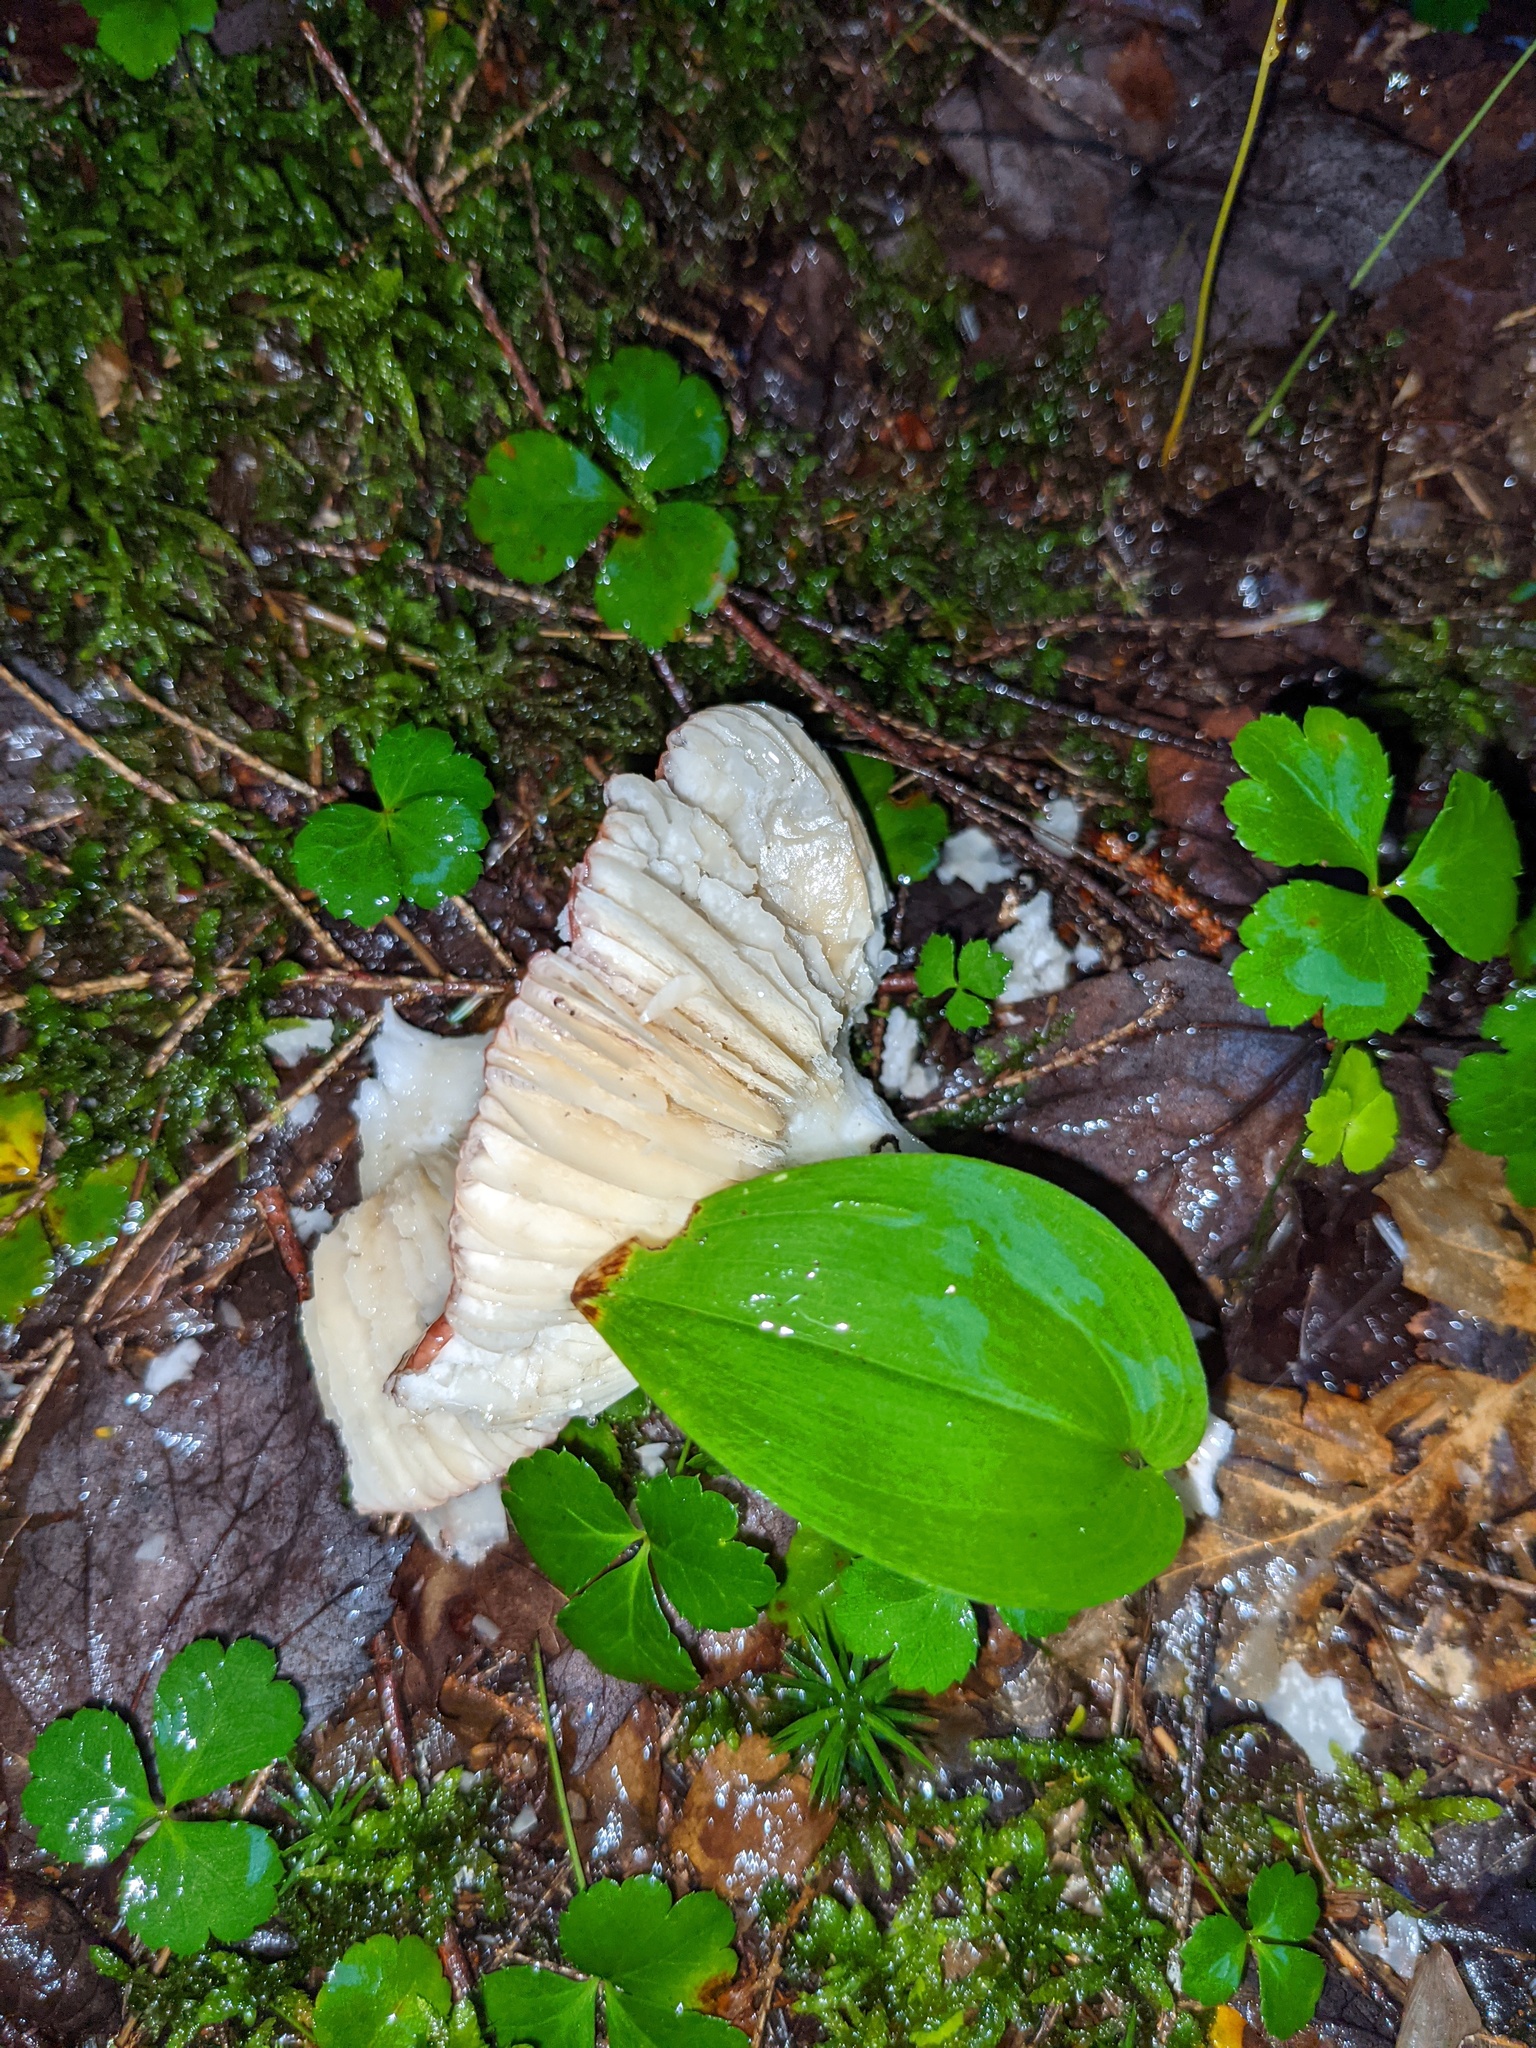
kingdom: Plantae
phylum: Tracheophyta
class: Liliopsida
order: Asparagales
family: Asparagaceae
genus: Maianthemum
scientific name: Maianthemum canadense
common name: False lily-of-the-valley
